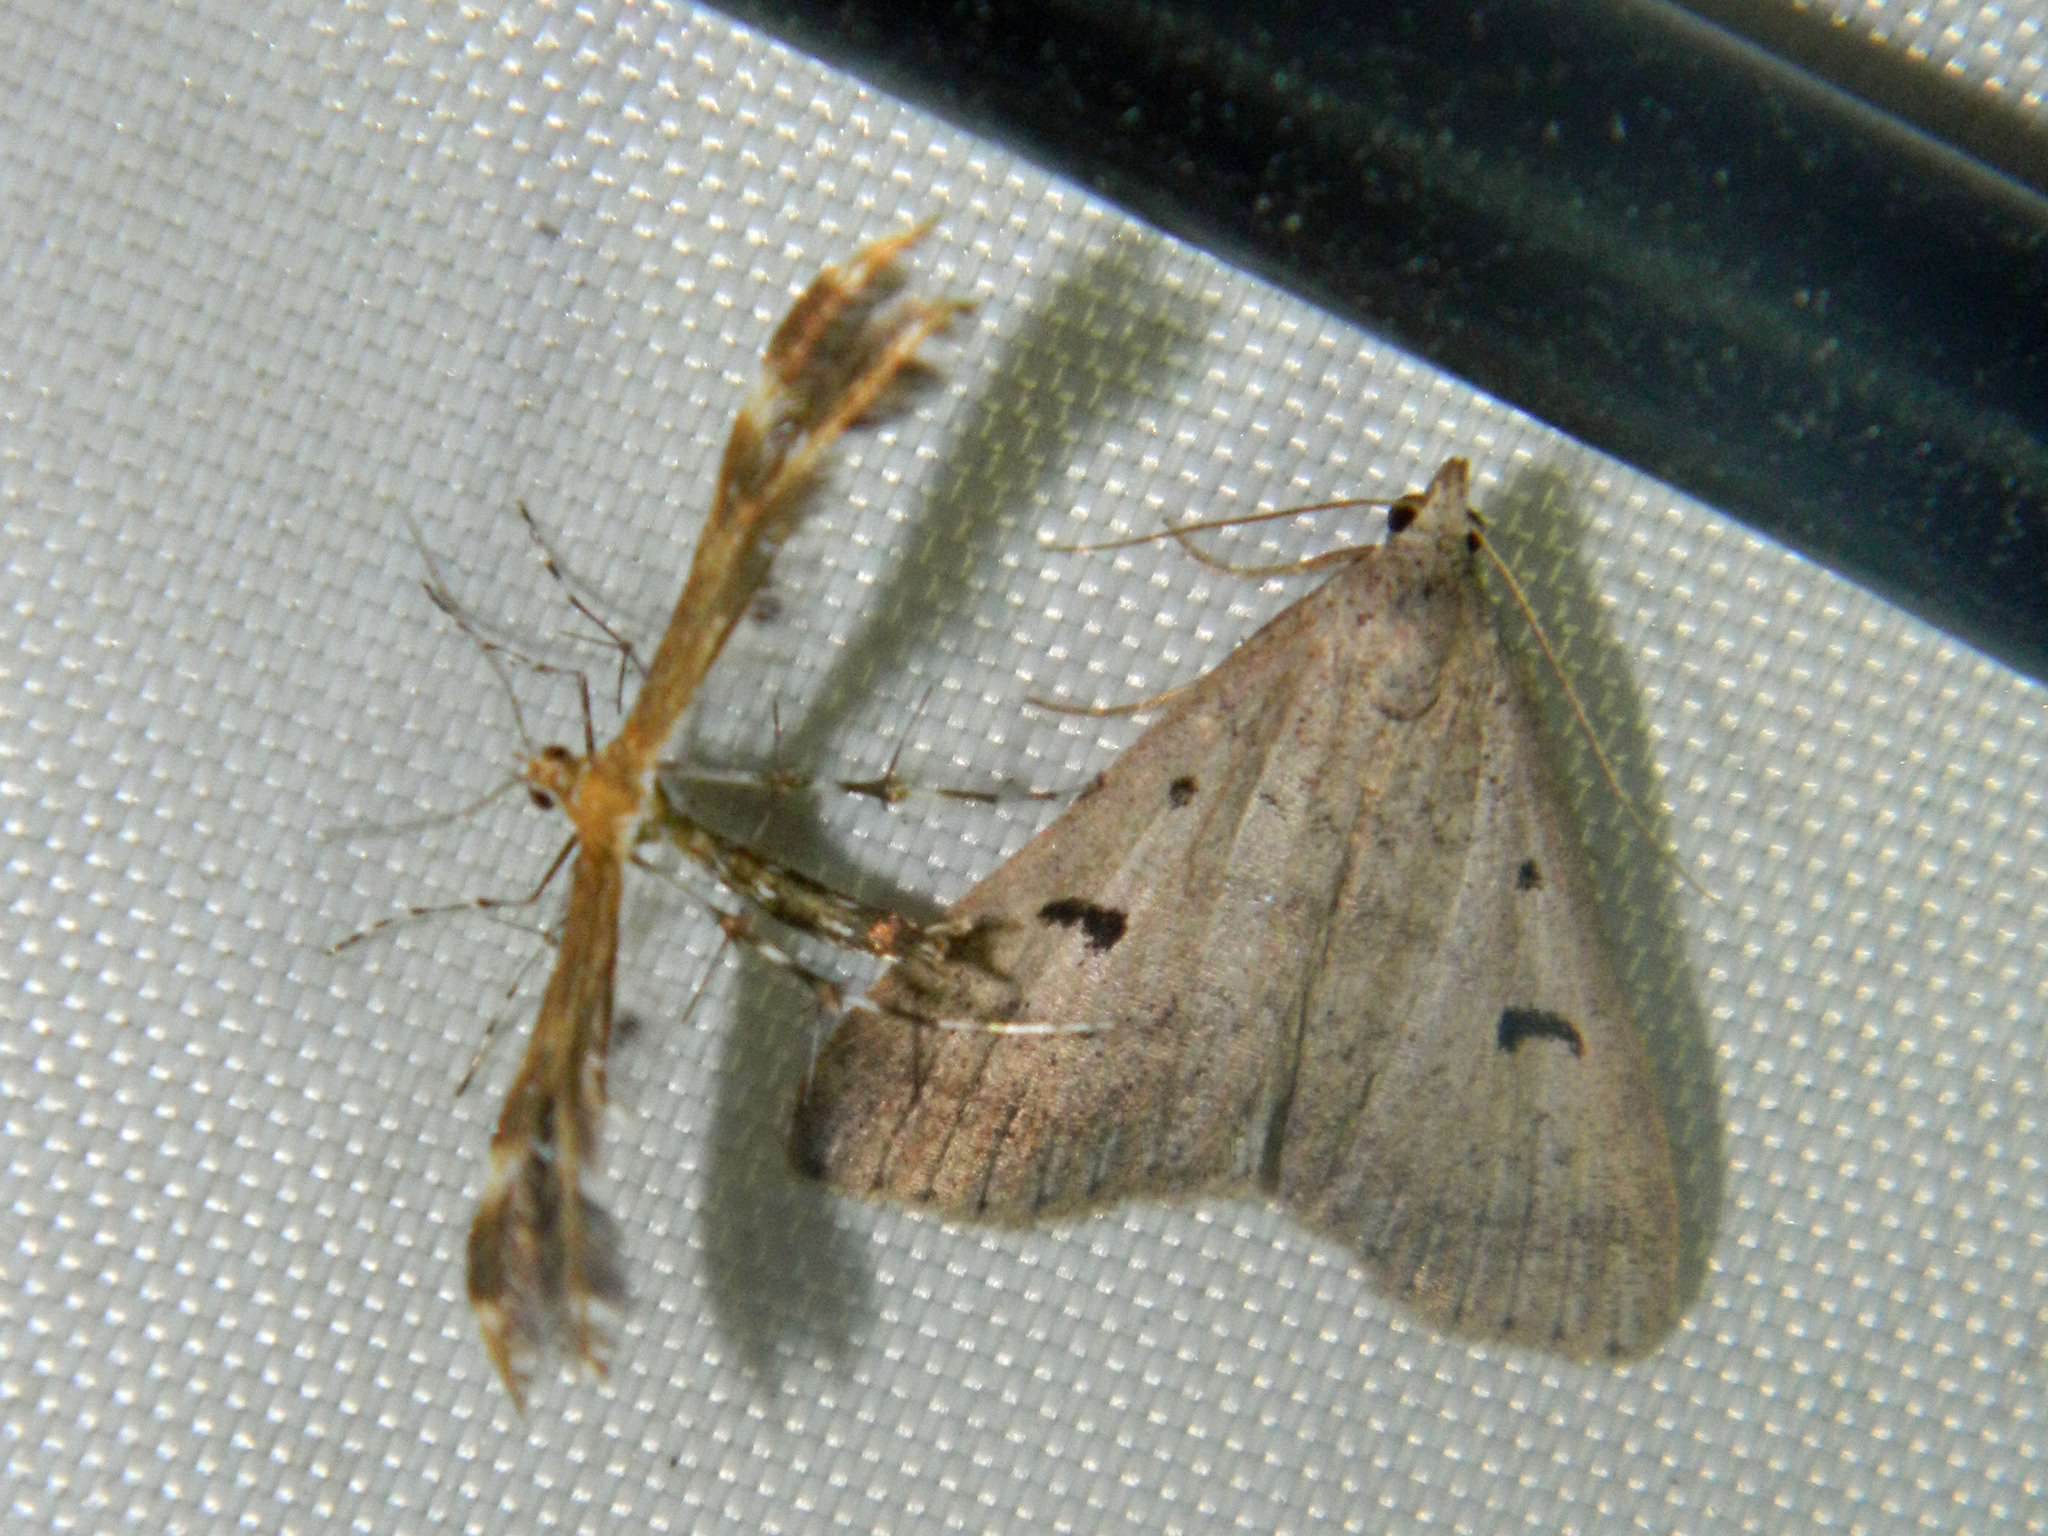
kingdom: Animalia
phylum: Arthropoda
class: Insecta
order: Lepidoptera
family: Erebidae
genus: Bleptina
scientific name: Bleptina caradrinalis
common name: Bent-winged owlet
